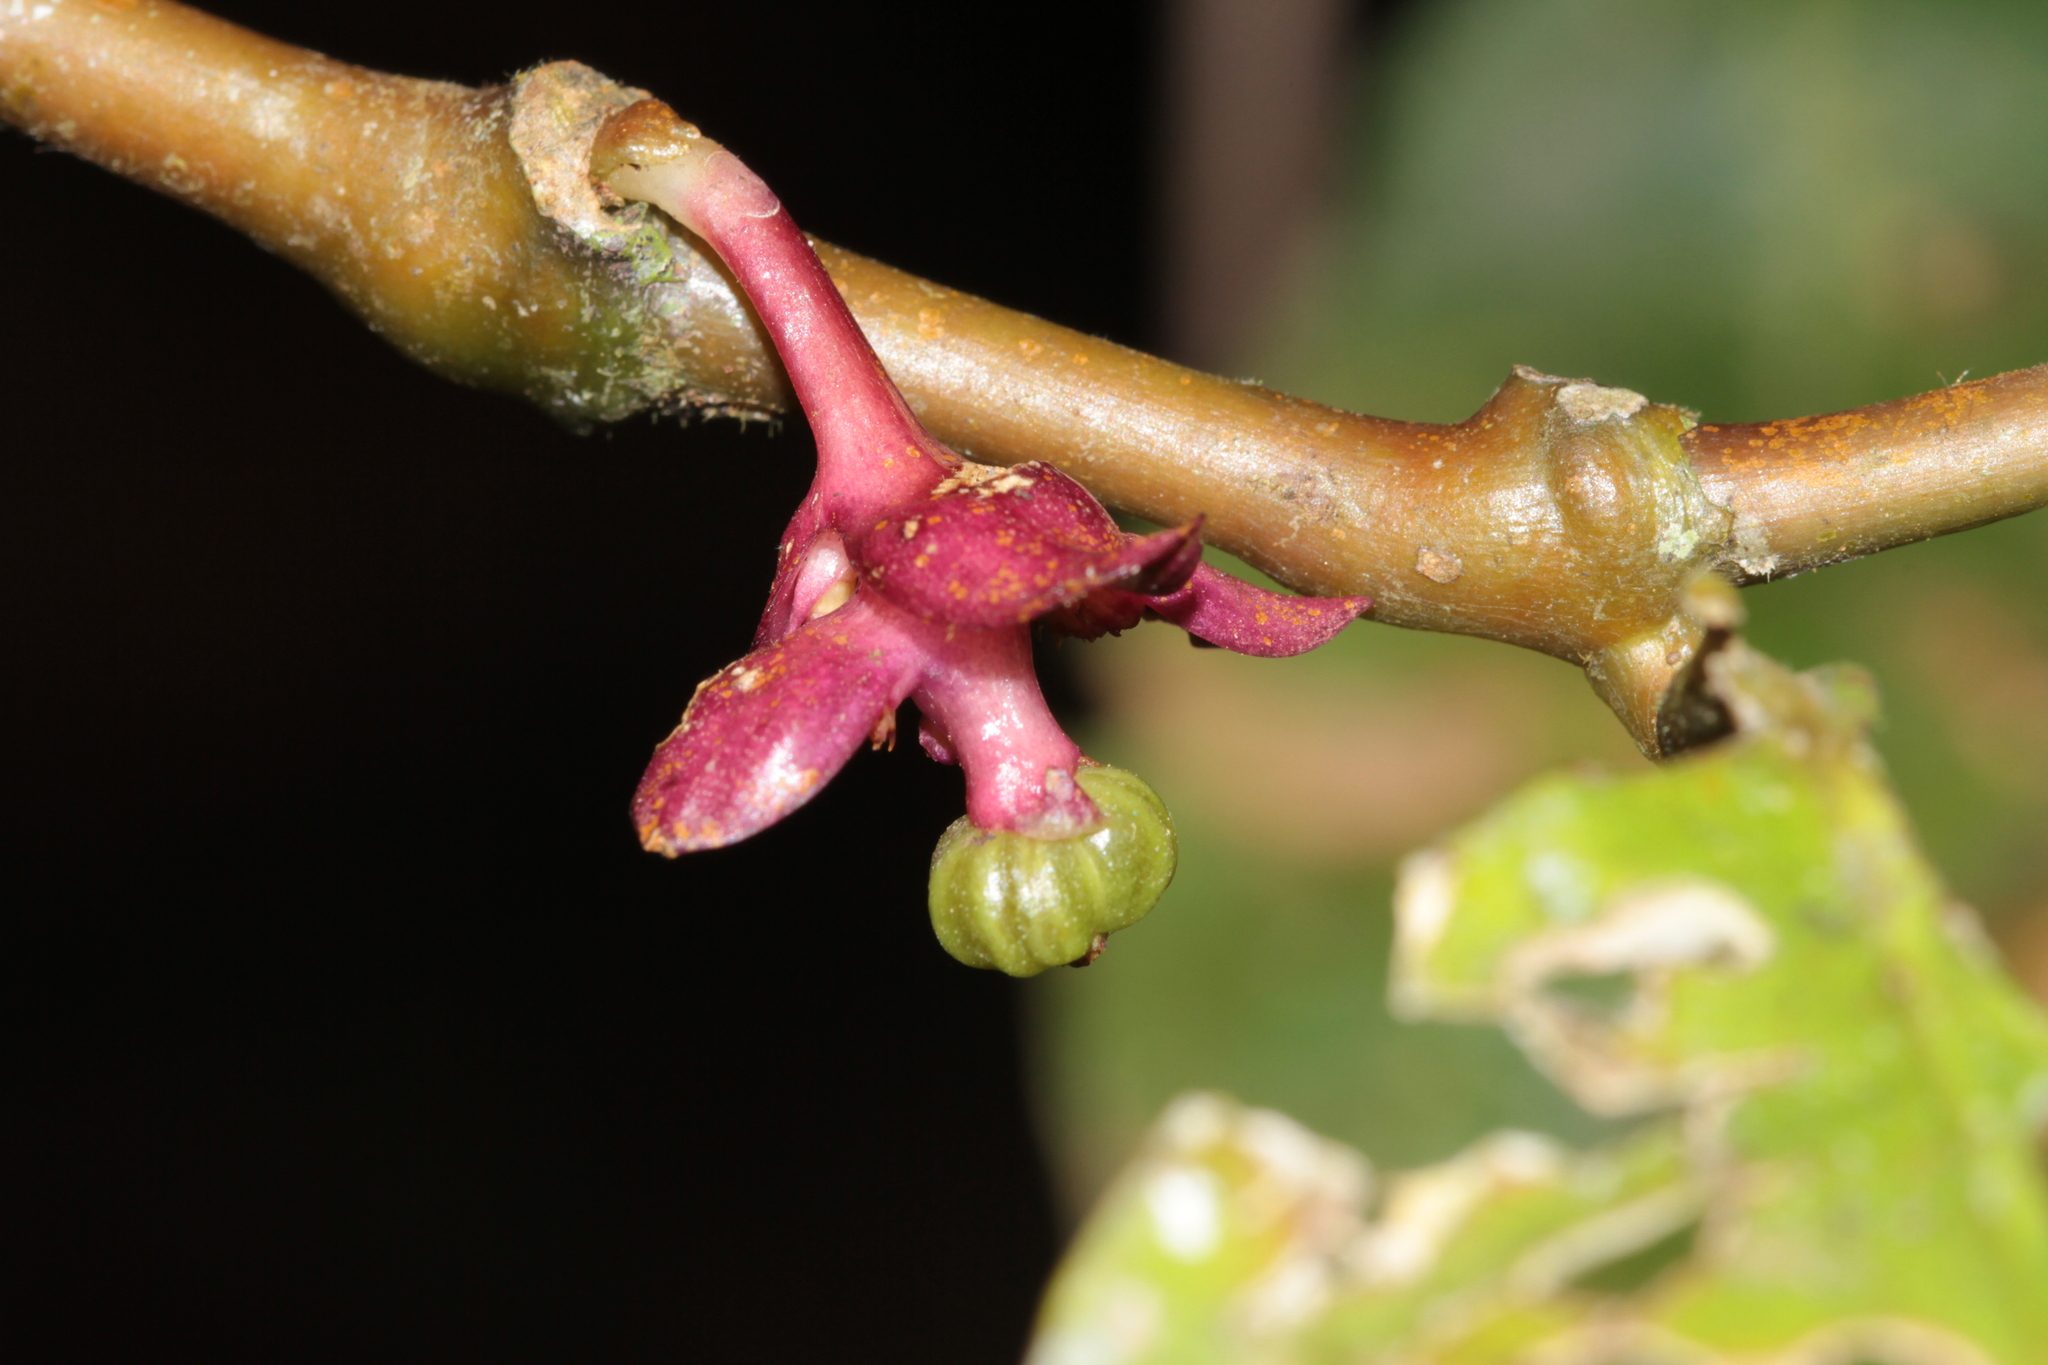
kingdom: Plantae
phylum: Tracheophyta
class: Magnoliopsida
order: Gentianales
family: Rubiaceae
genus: Palicourea
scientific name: Palicourea dichotoma
